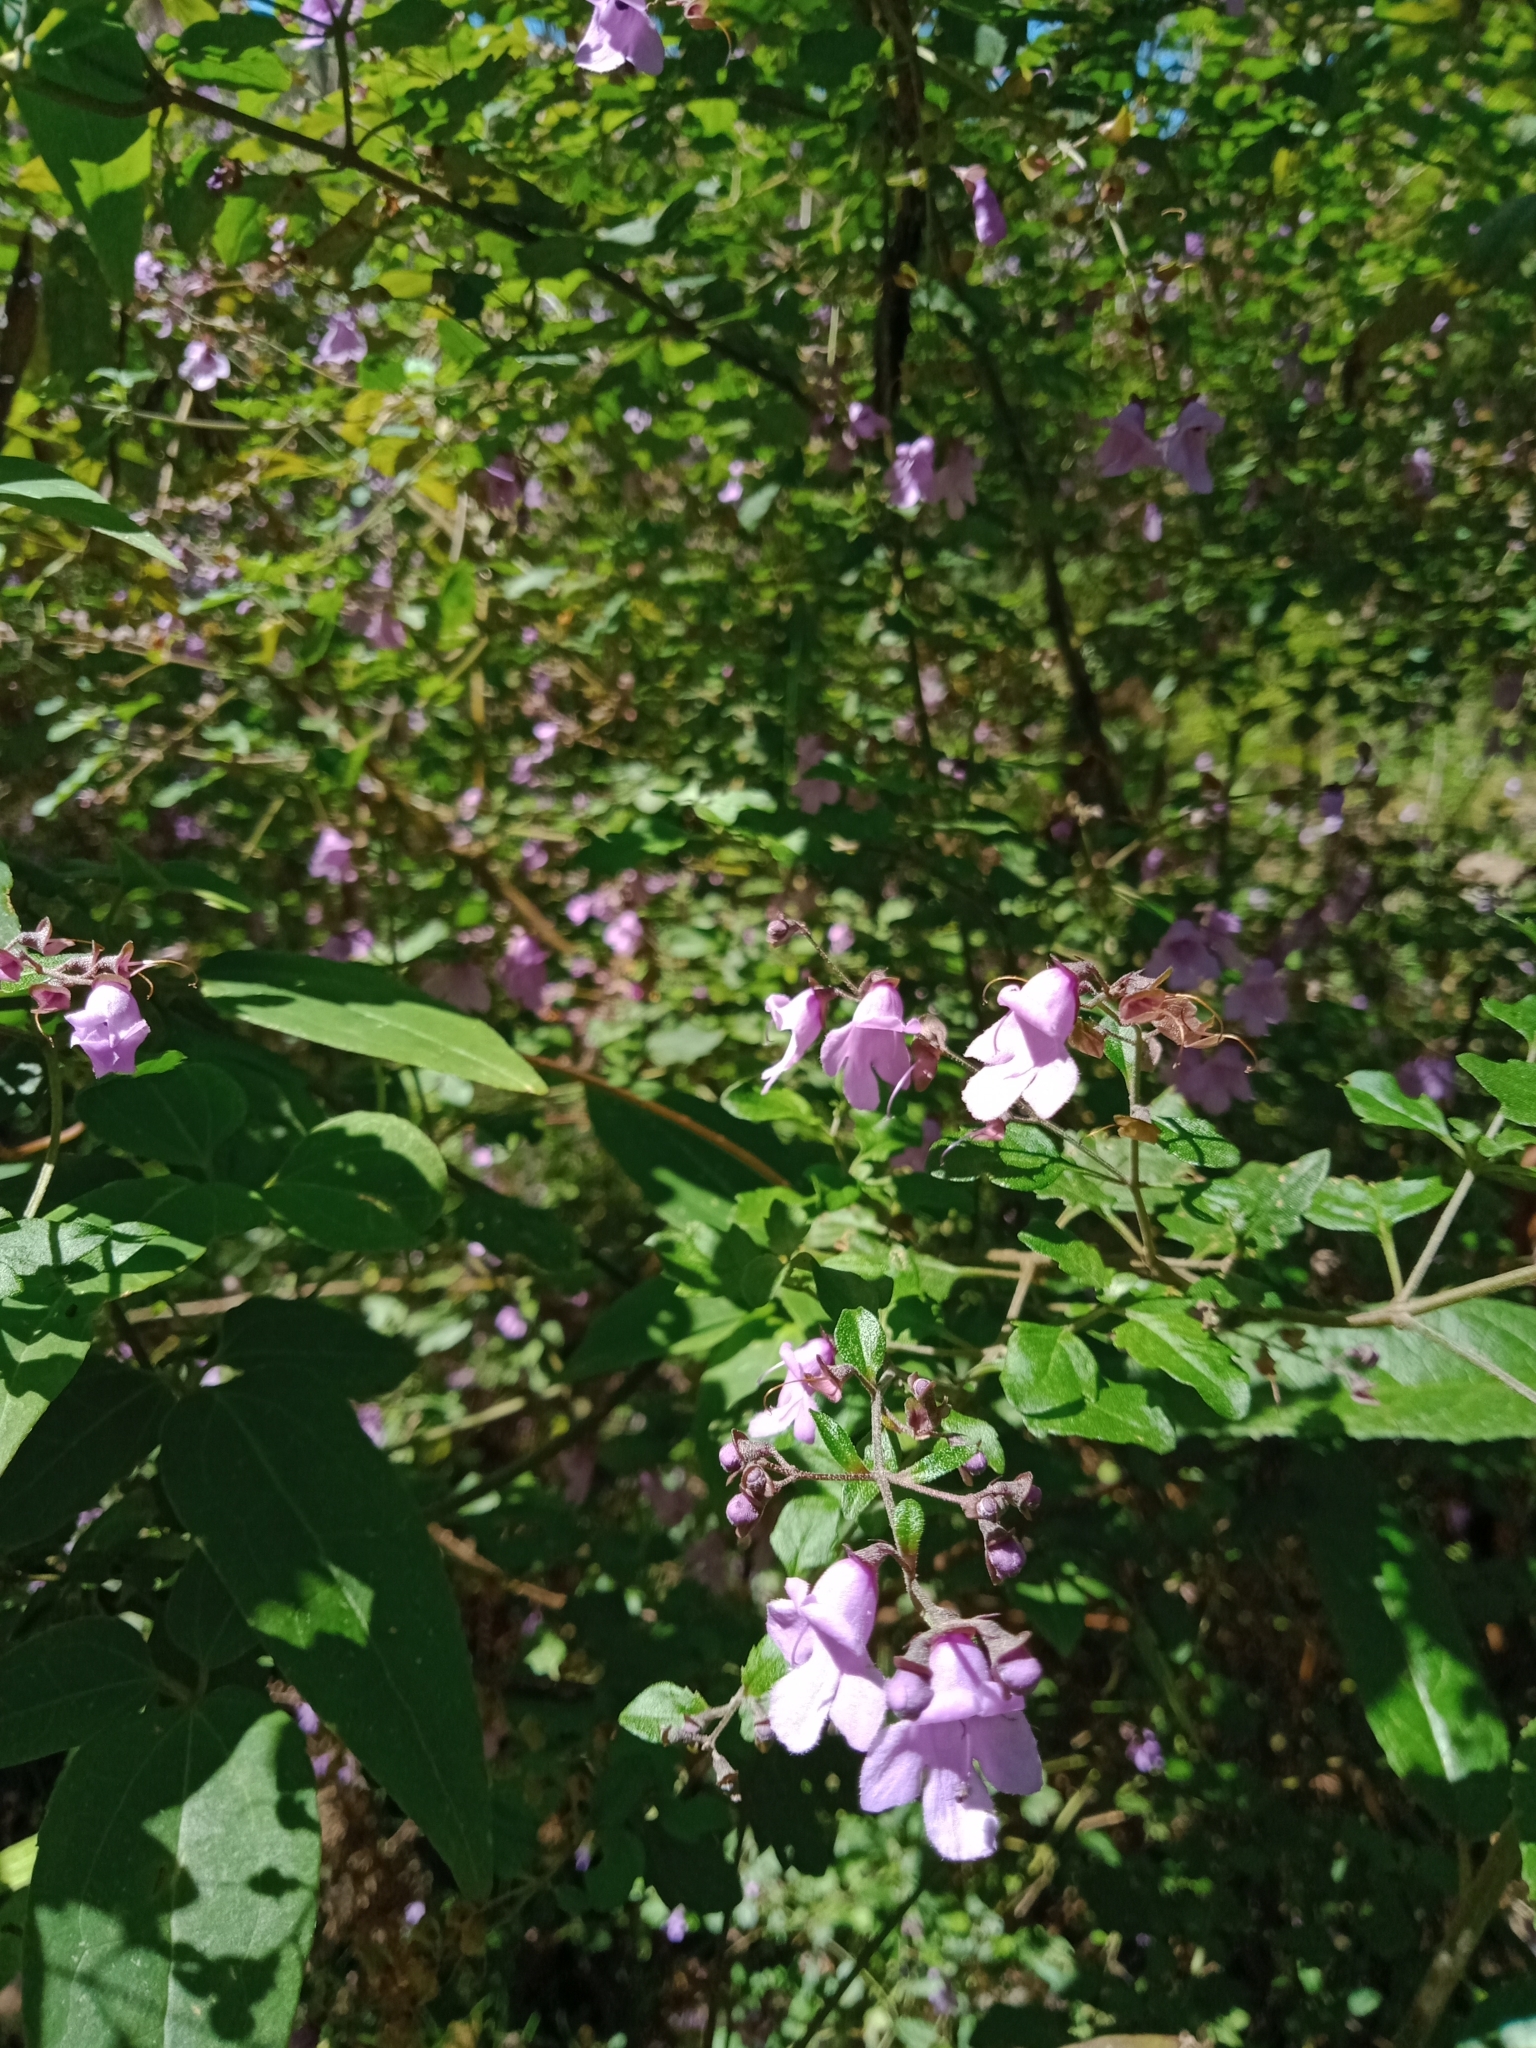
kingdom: Plantae
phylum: Tracheophyta
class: Magnoliopsida
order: Lamiales
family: Lamiaceae
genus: Prostanthera
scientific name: Prostanthera melissifolia
